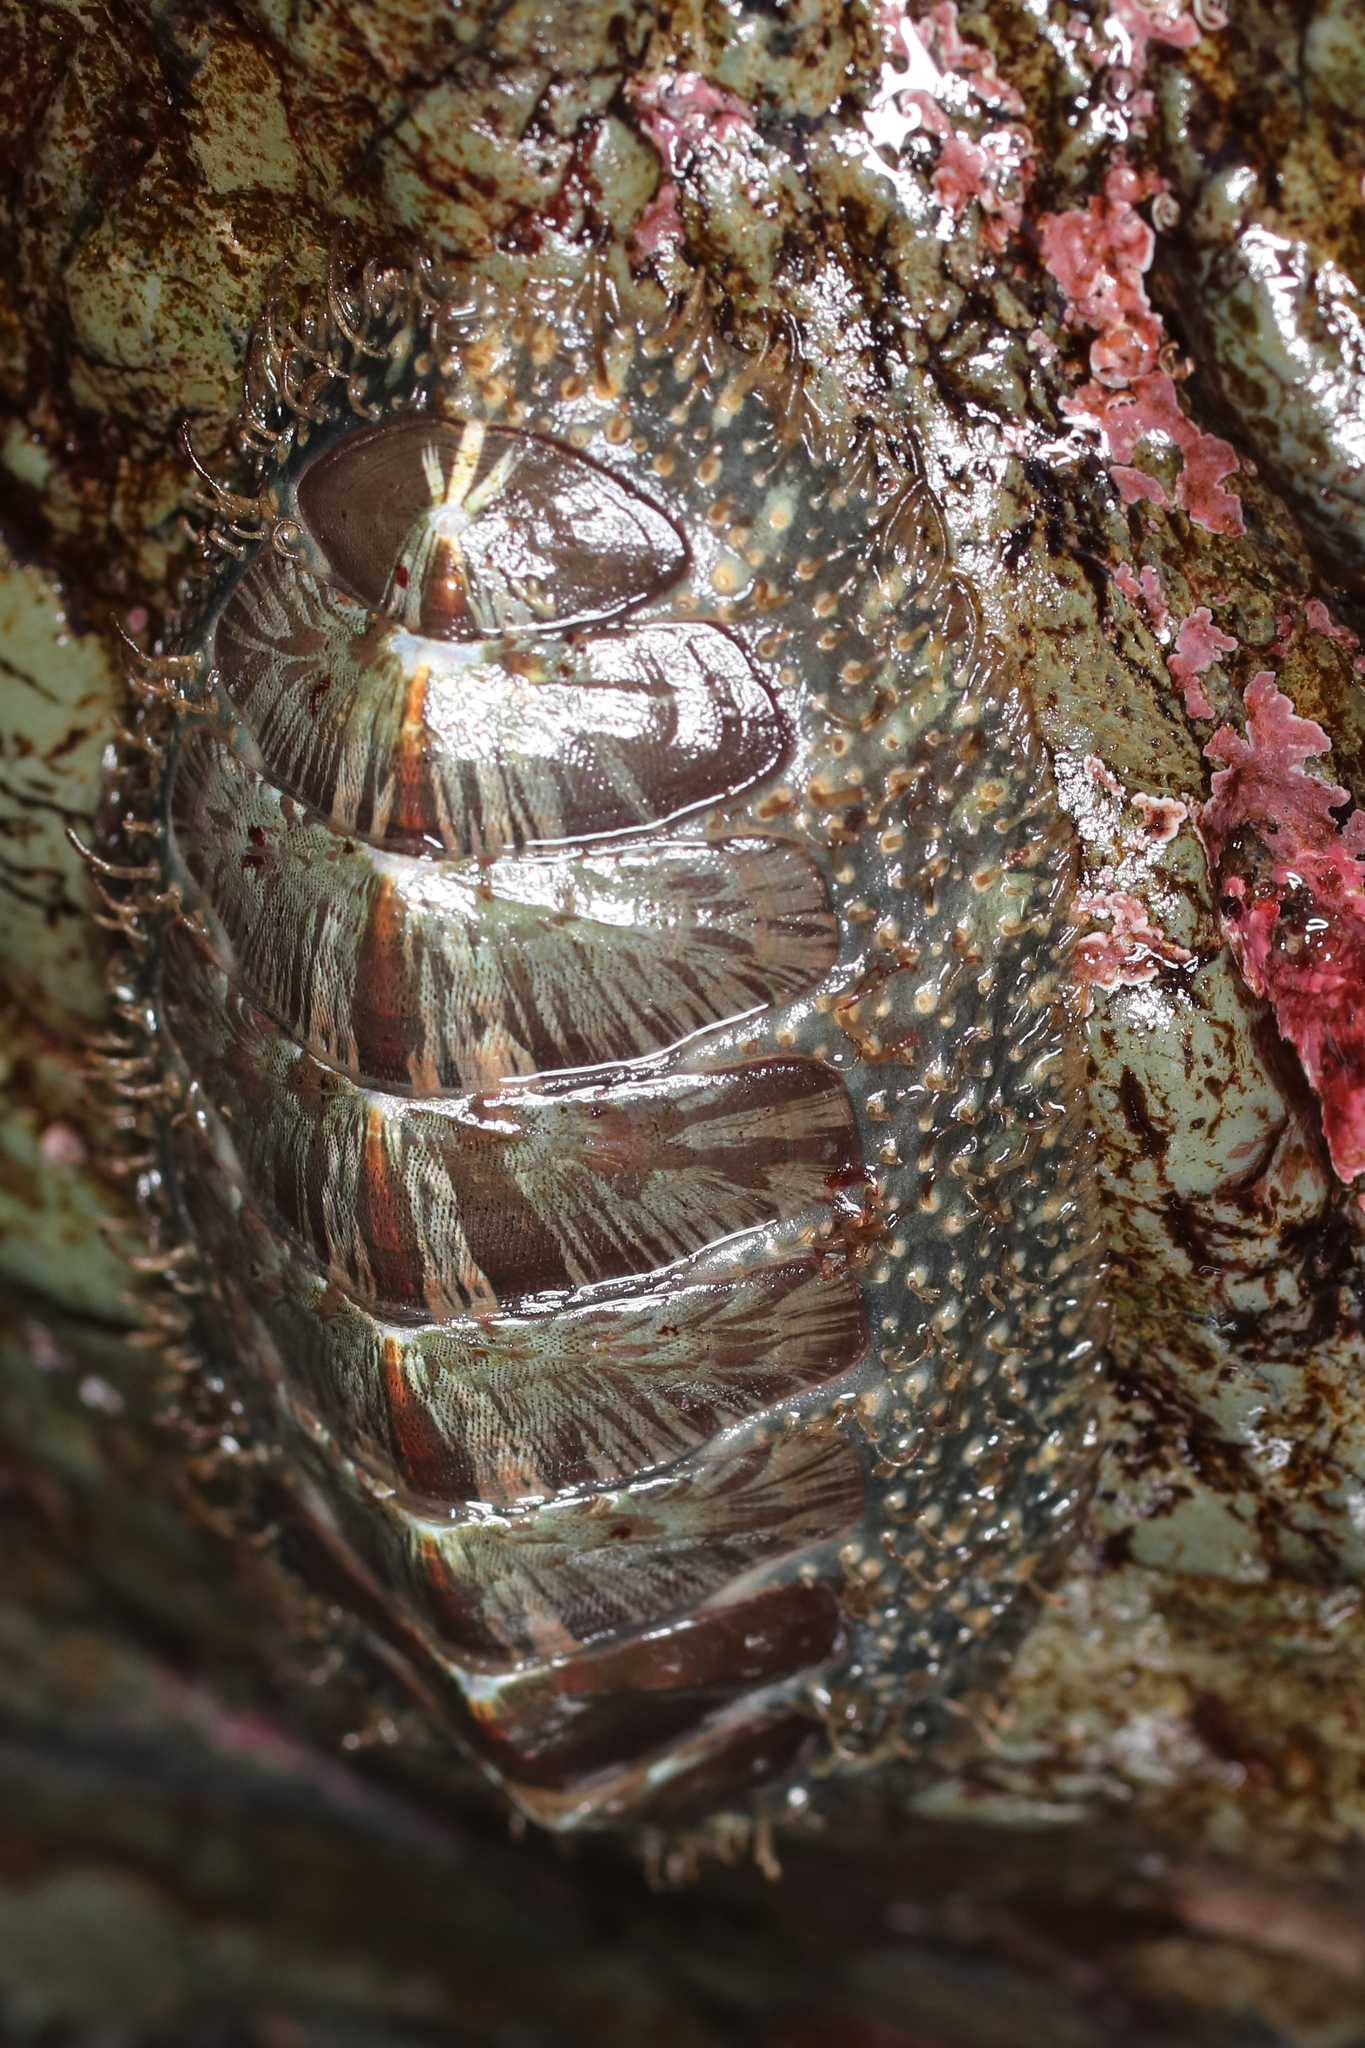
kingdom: Animalia
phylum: Mollusca
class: Polyplacophora
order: Chitonida
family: Mopaliidae
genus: Mopalia
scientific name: Mopalia lignosa
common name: Woody chiton
